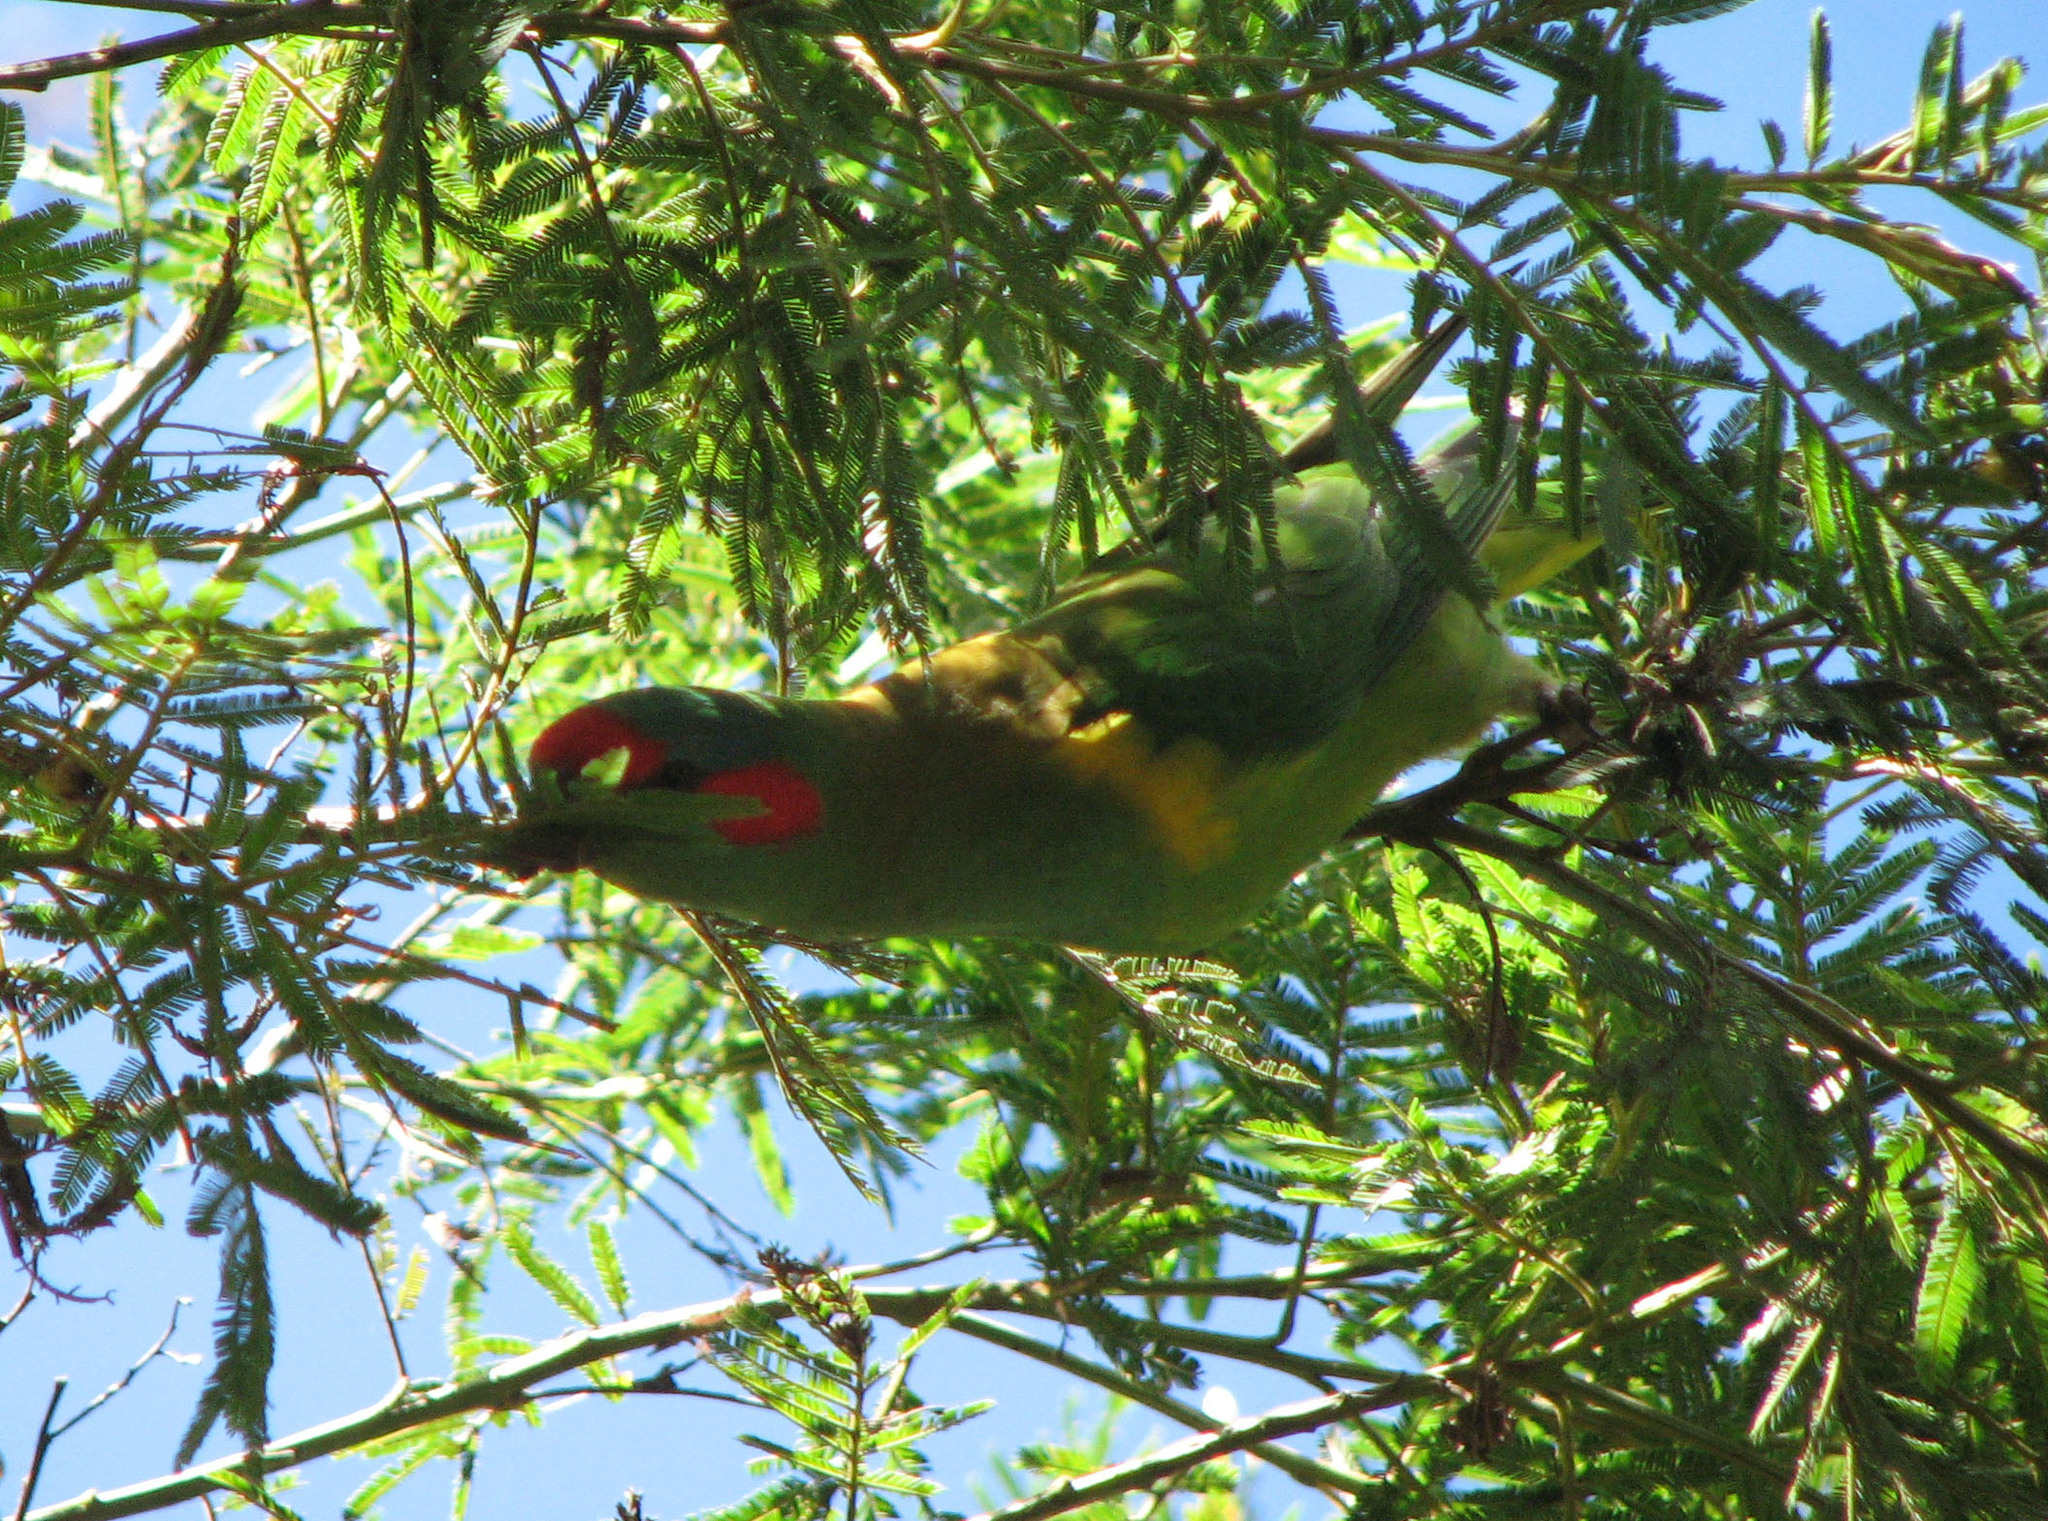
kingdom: Animalia
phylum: Chordata
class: Aves
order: Psittaciformes
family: Psittacidae
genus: Glossopsitta
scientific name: Glossopsitta concinna
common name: Musk lorikeet
